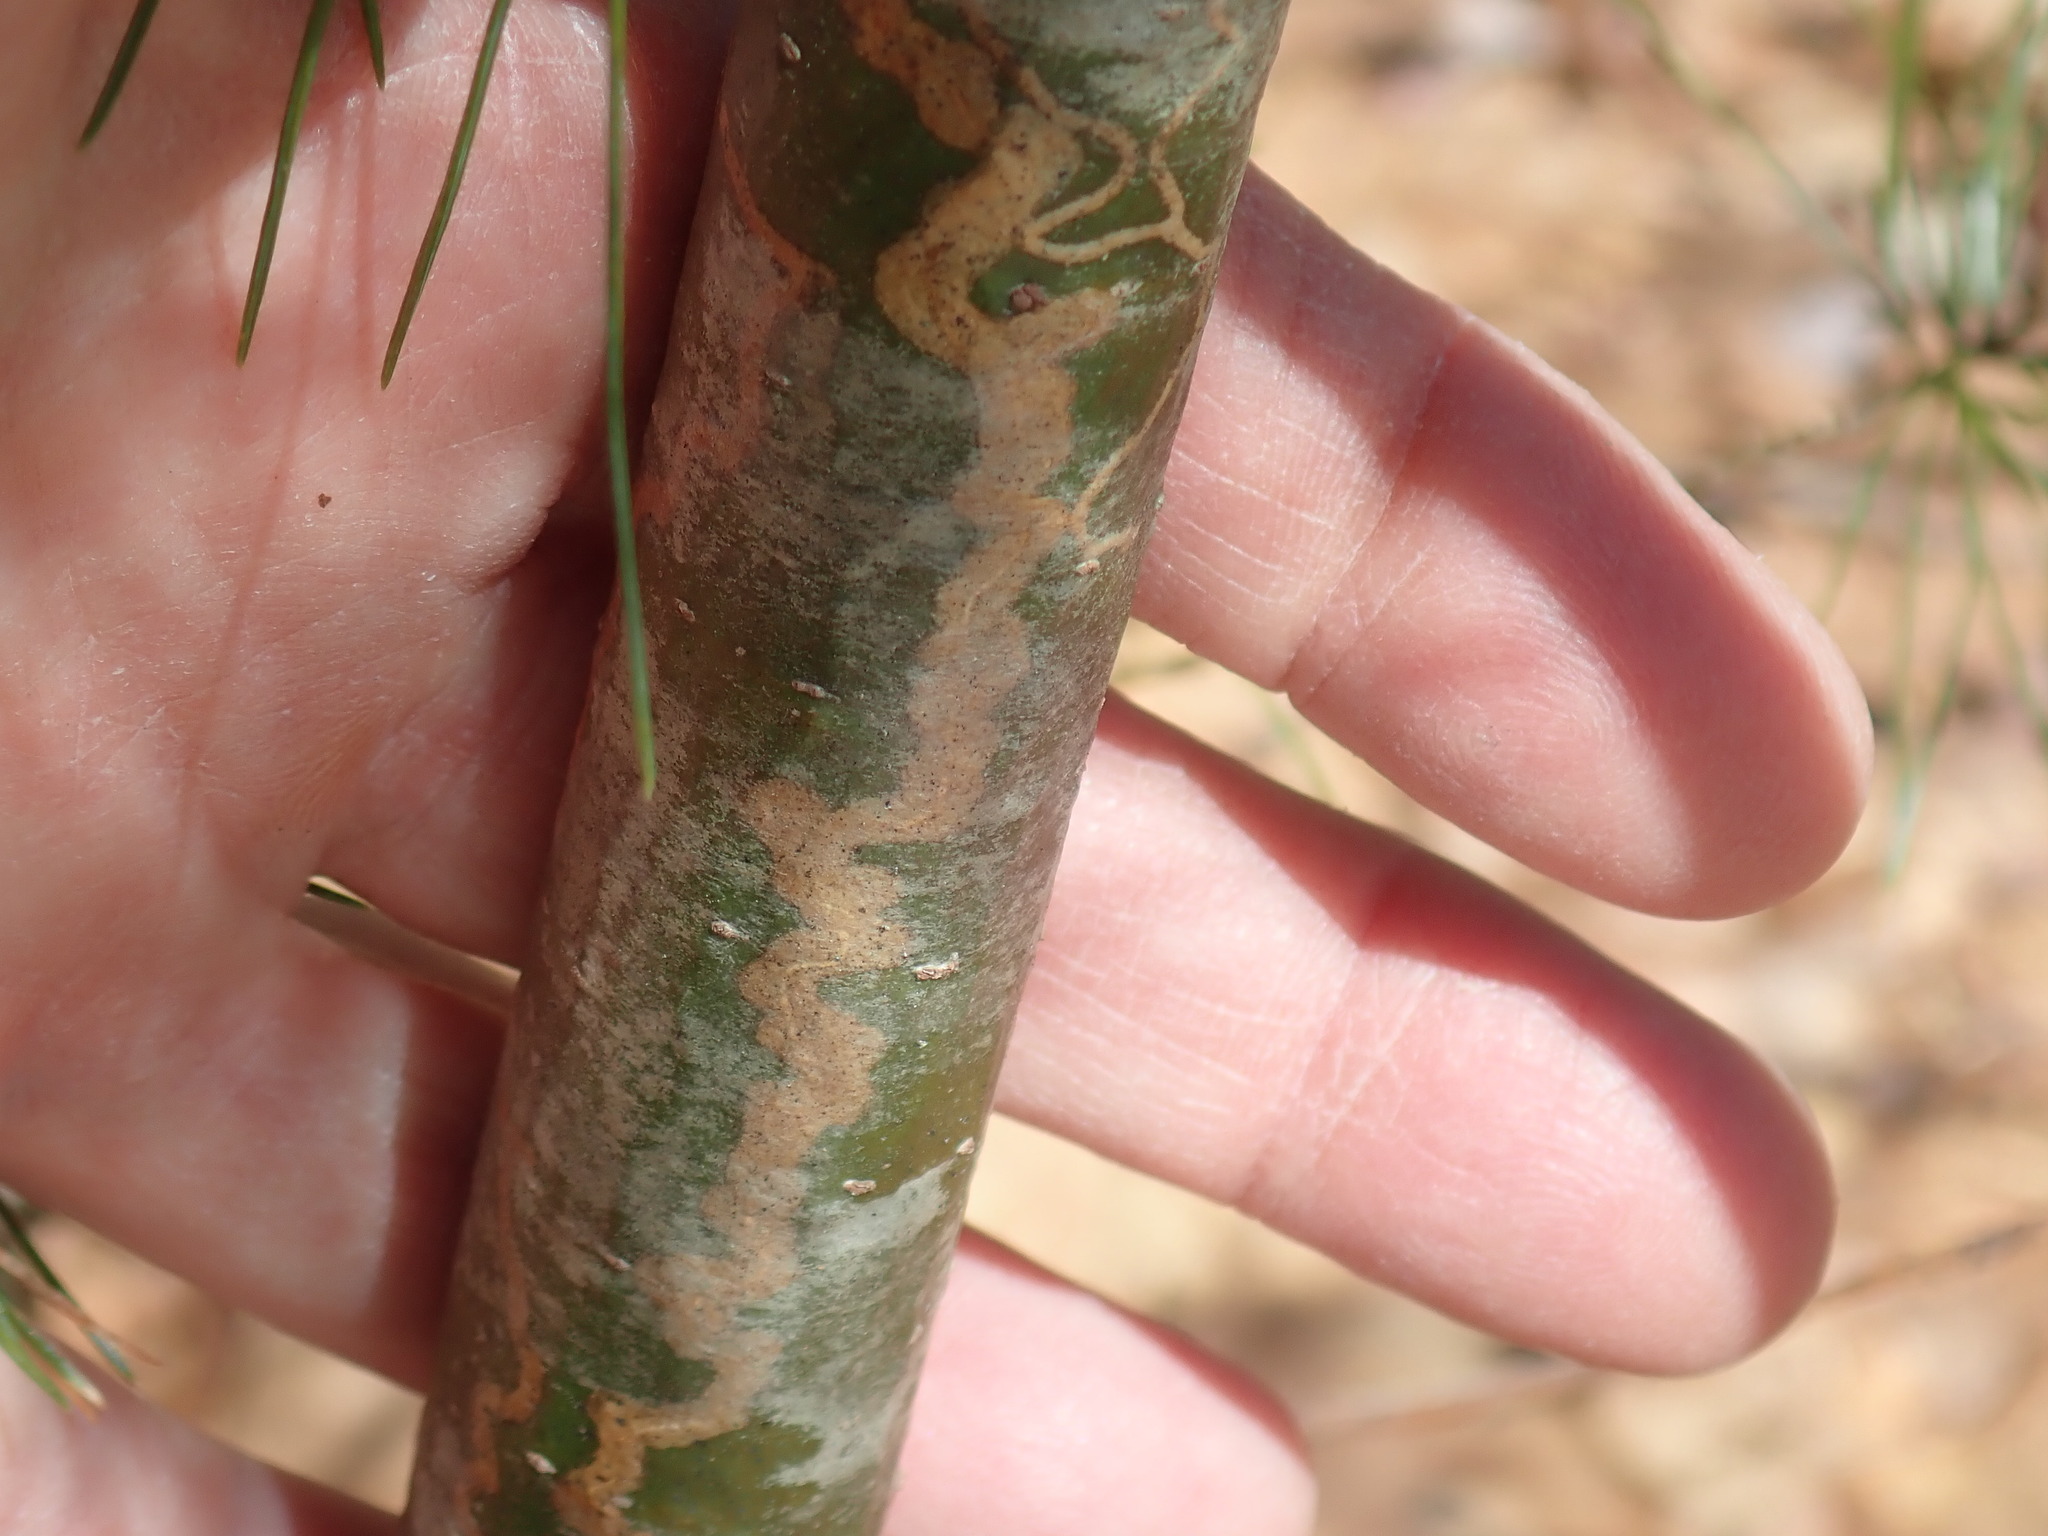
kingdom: Animalia
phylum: Arthropoda
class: Insecta
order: Lepidoptera
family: Gracillariidae
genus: Marmara
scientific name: Marmara fasciella
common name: White pine barkminer moth
